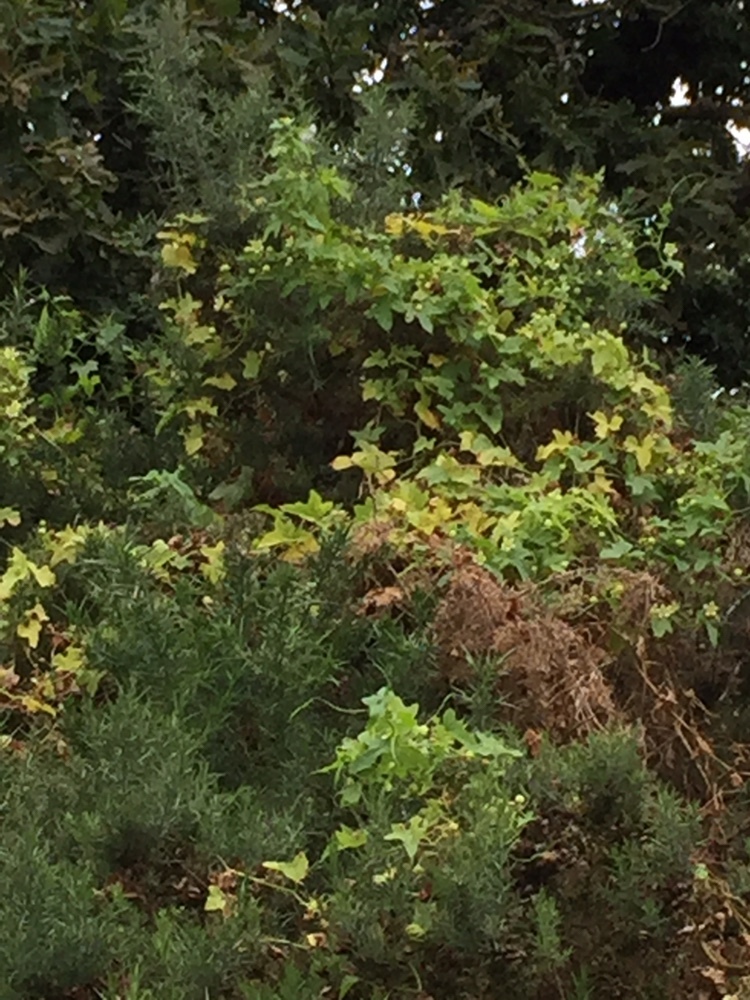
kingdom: Plantae
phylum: Tracheophyta
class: Magnoliopsida
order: Cucurbitales
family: Cucurbitaceae
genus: Bryonia
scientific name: Bryonia cretica
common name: Cretan bryony
